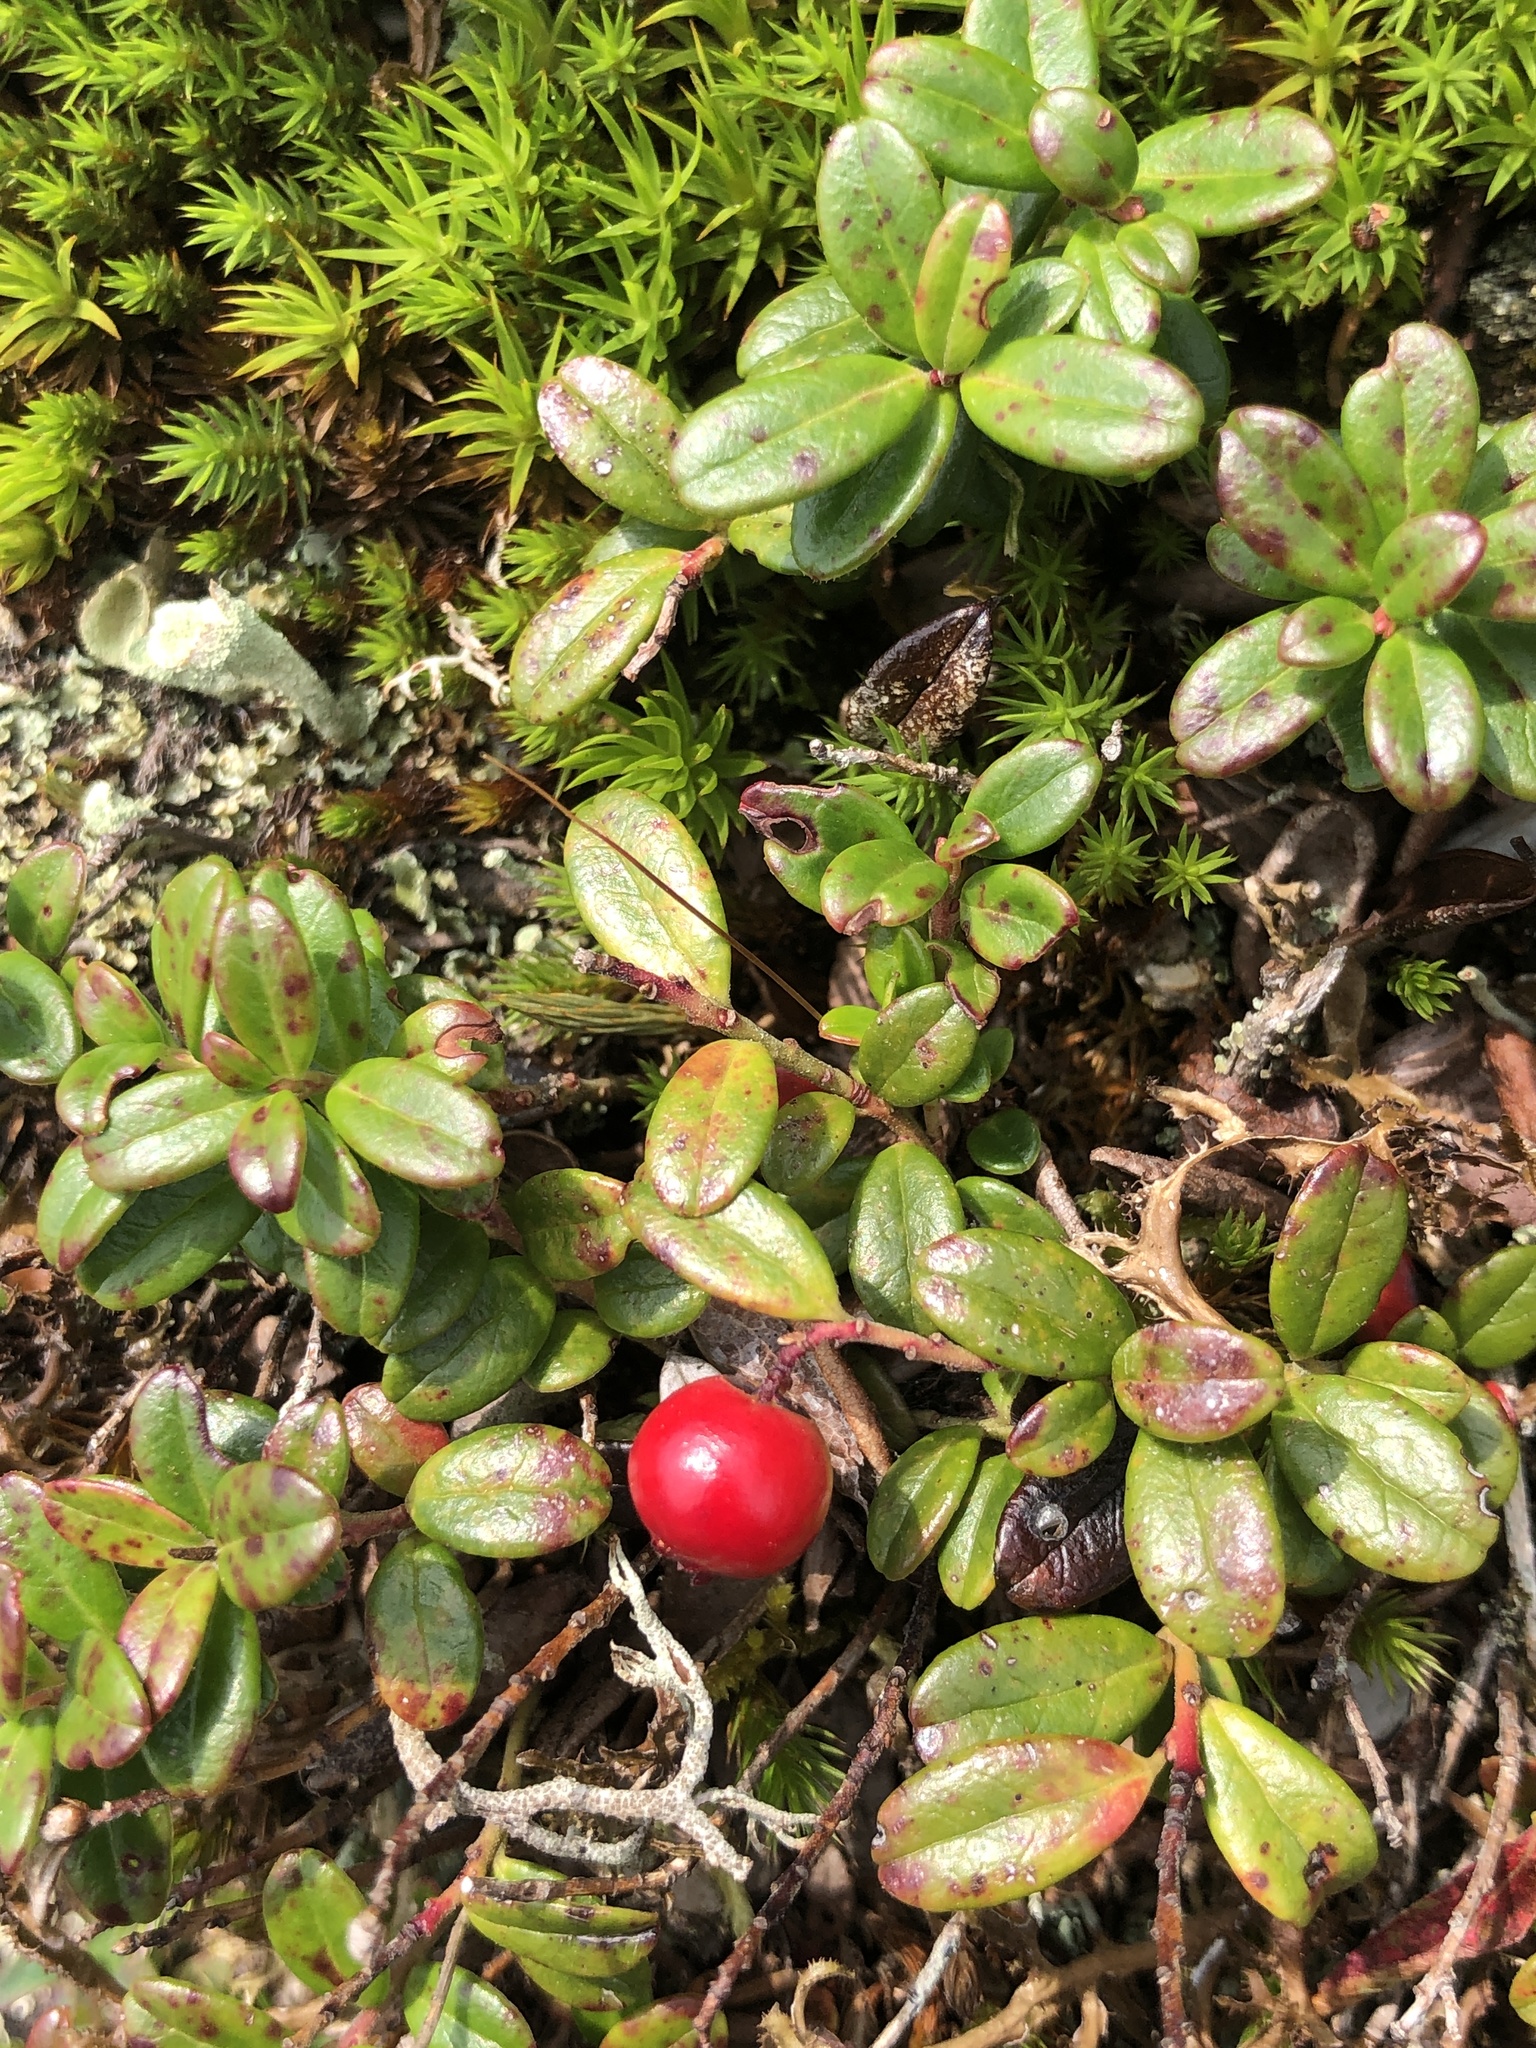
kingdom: Plantae
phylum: Tracheophyta
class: Magnoliopsida
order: Ericales
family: Ericaceae
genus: Vaccinium
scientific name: Vaccinium vitis-idaea
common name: Cowberry
